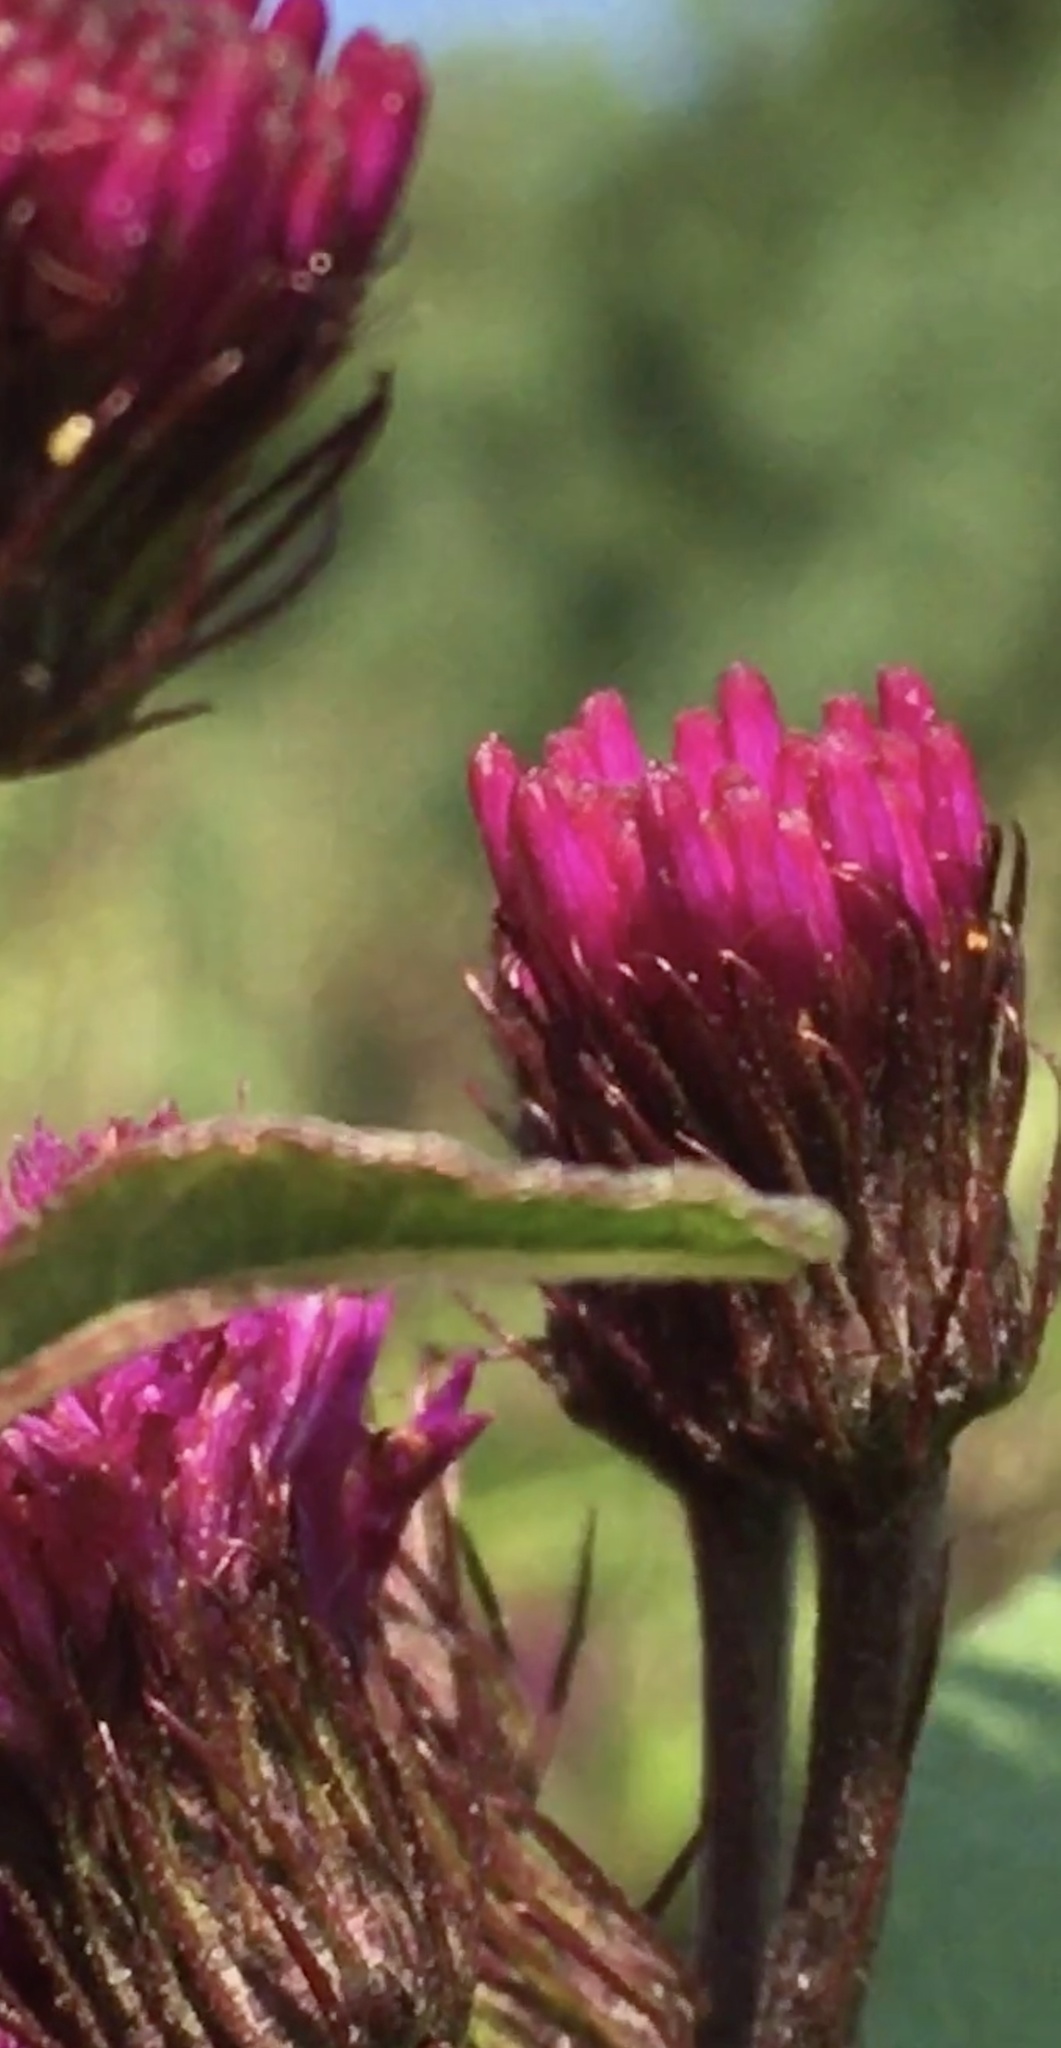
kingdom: Plantae
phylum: Tracheophyta
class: Magnoliopsida
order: Asterales
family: Asteraceae
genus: Vernonia
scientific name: Vernonia noveboracensis
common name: New york ironweed
